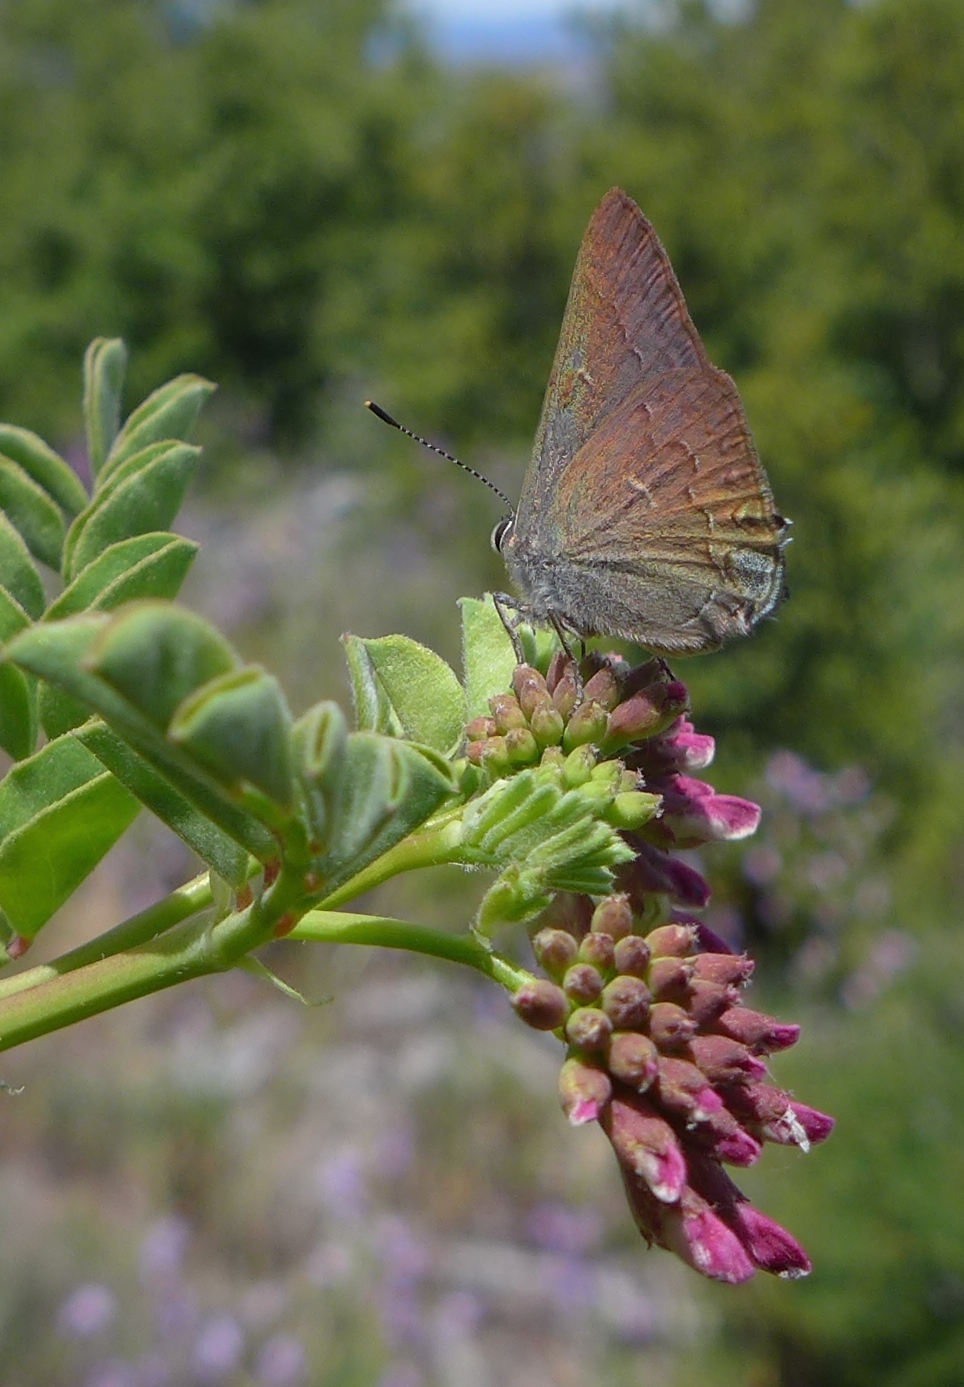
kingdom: Animalia
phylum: Arthropoda
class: Insecta
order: Lepidoptera
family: Lycaenidae
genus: Strymon
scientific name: Strymon saepium
